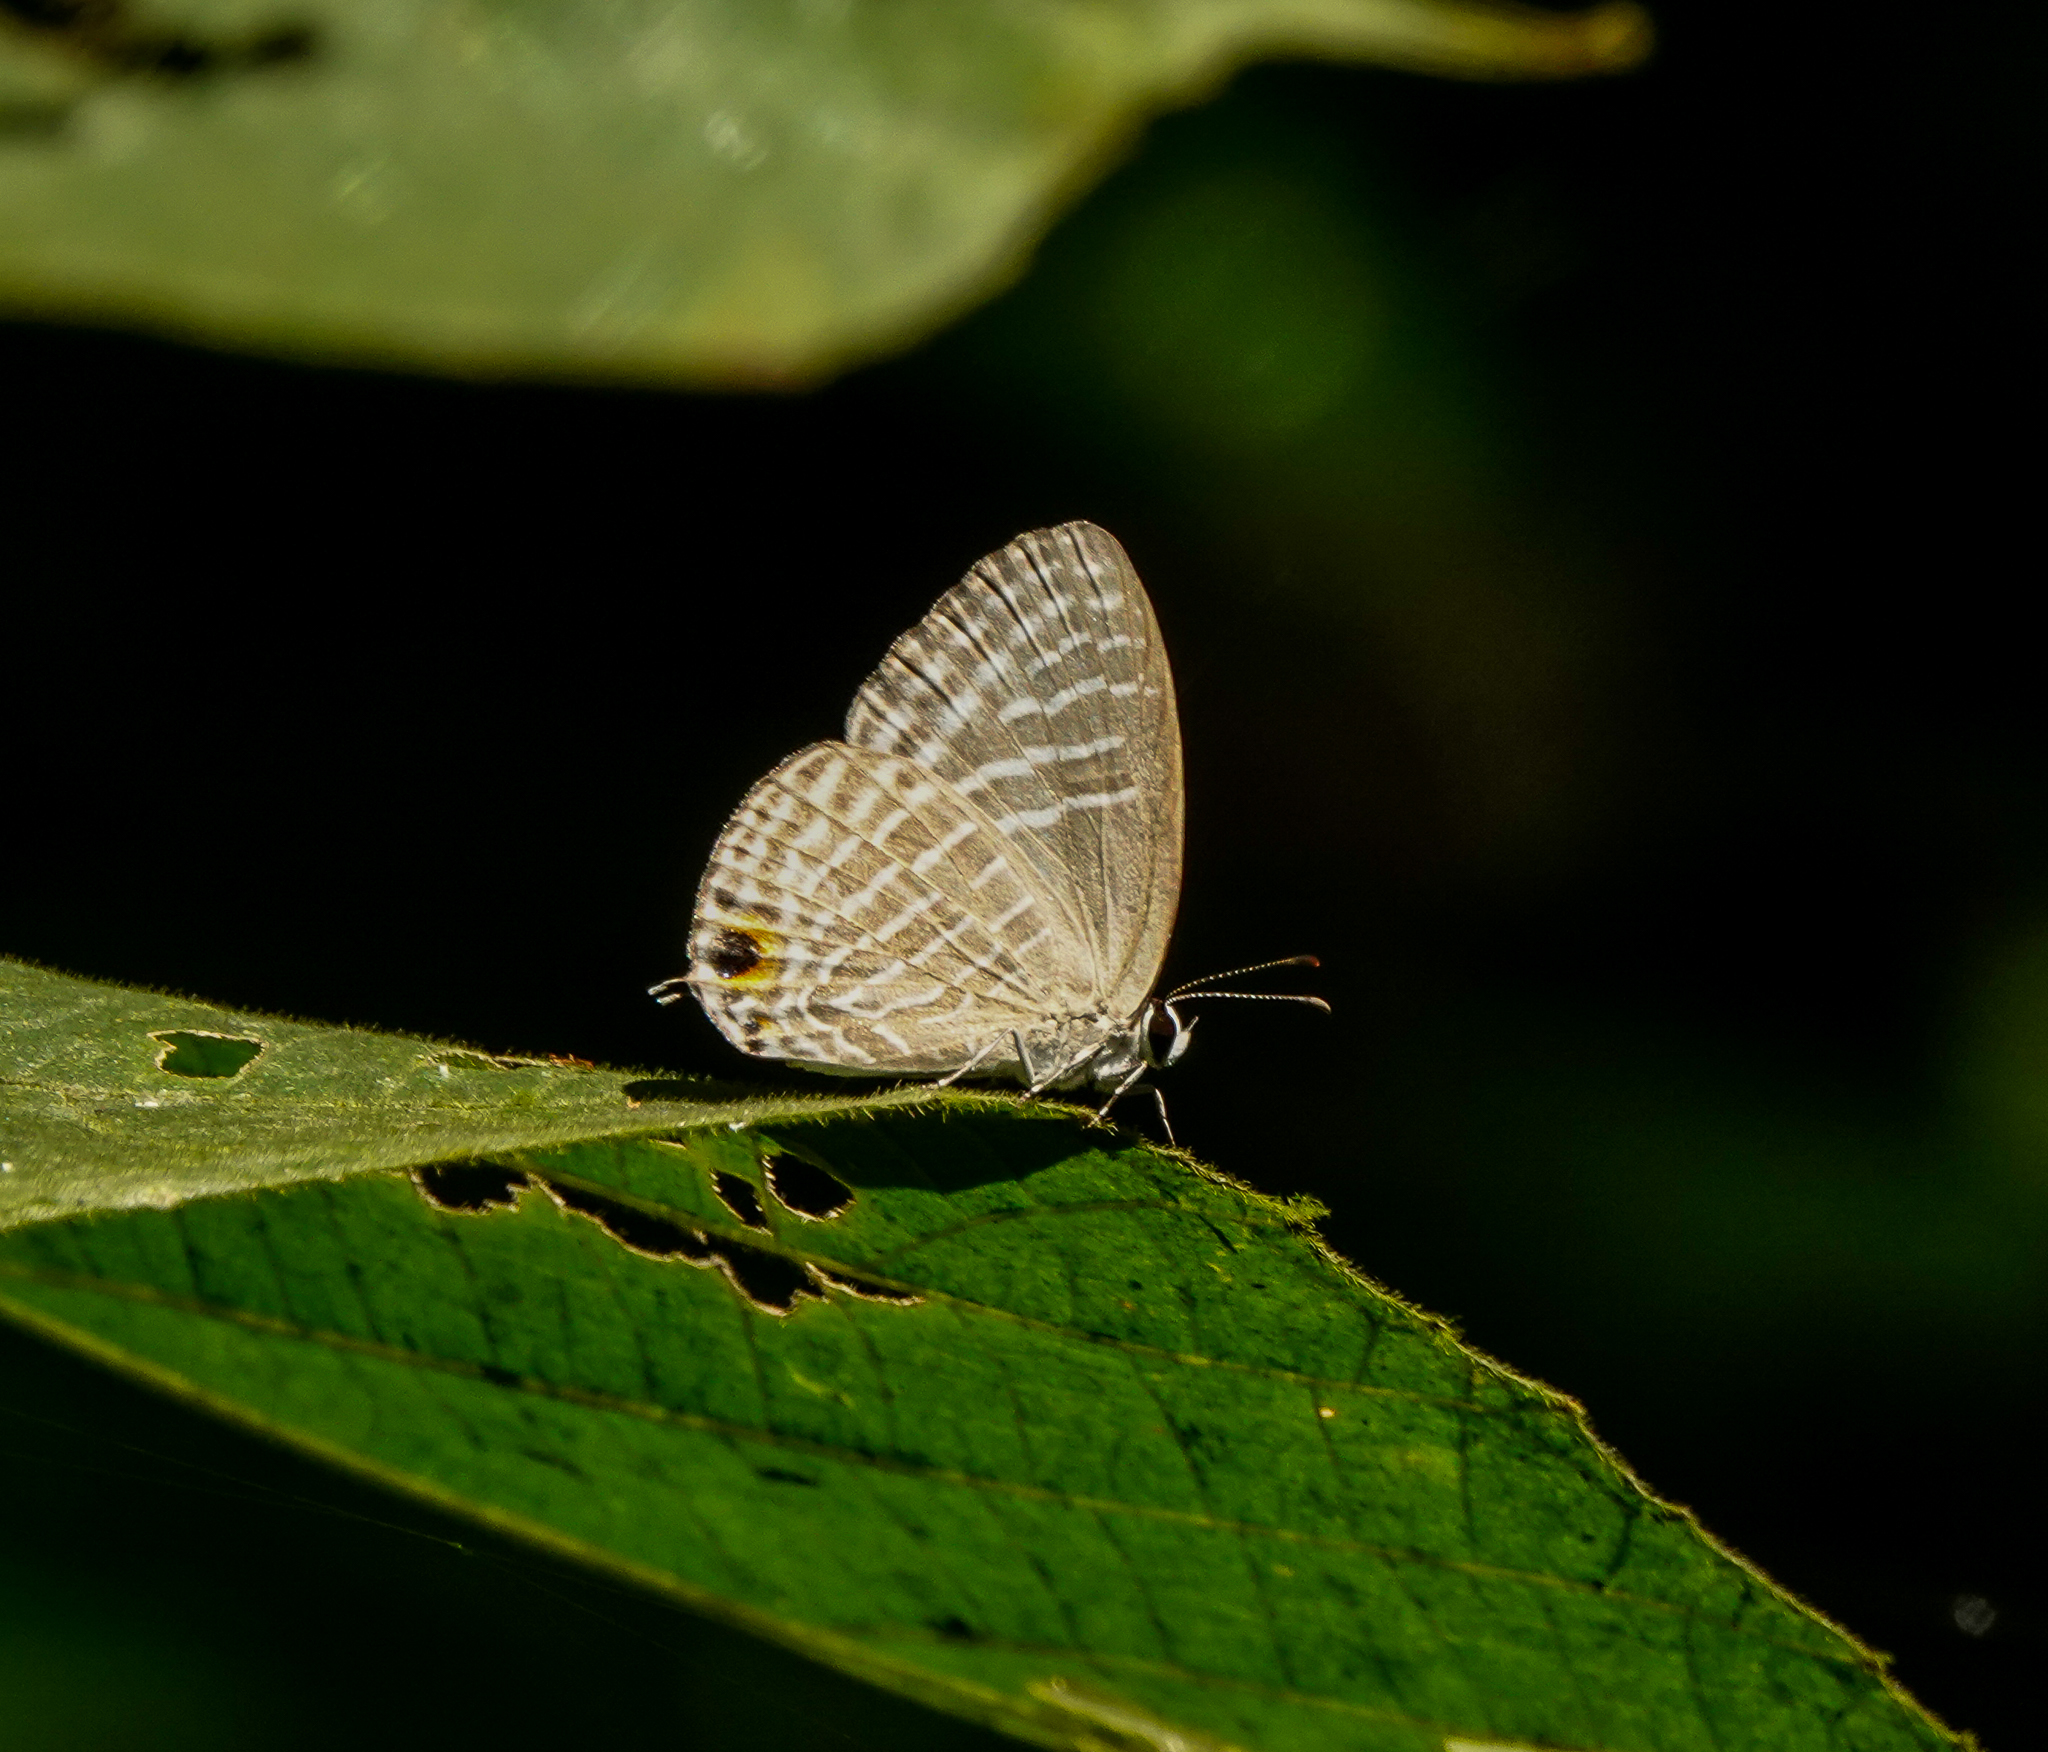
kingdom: Animalia
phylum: Arthropoda
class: Insecta
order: Lepidoptera
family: Lycaenidae
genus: Jamides
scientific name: Jamides alecto
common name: Metallic cerulean
